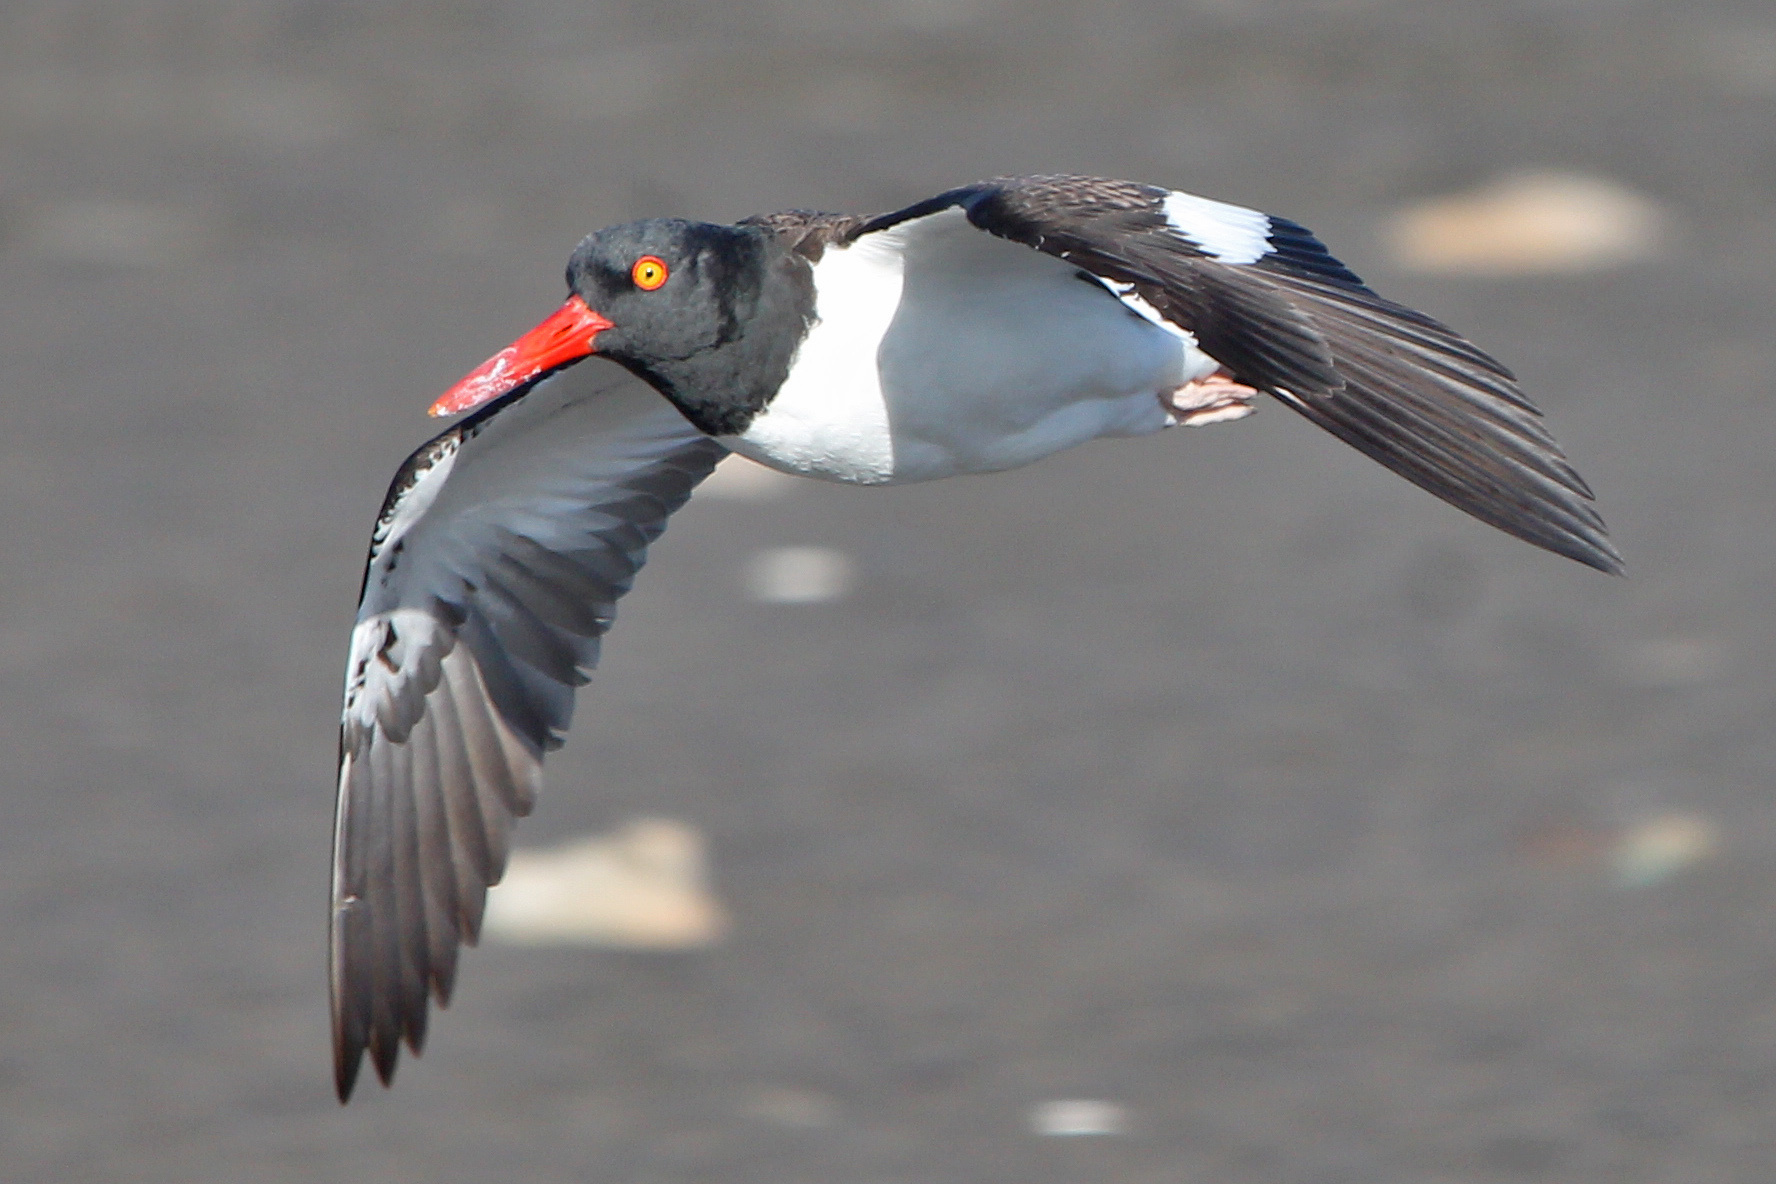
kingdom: Animalia
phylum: Chordata
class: Aves
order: Charadriiformes
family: Haematopodidae
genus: Haematopus
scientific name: Haematopus palliatus
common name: American oystercatcher
